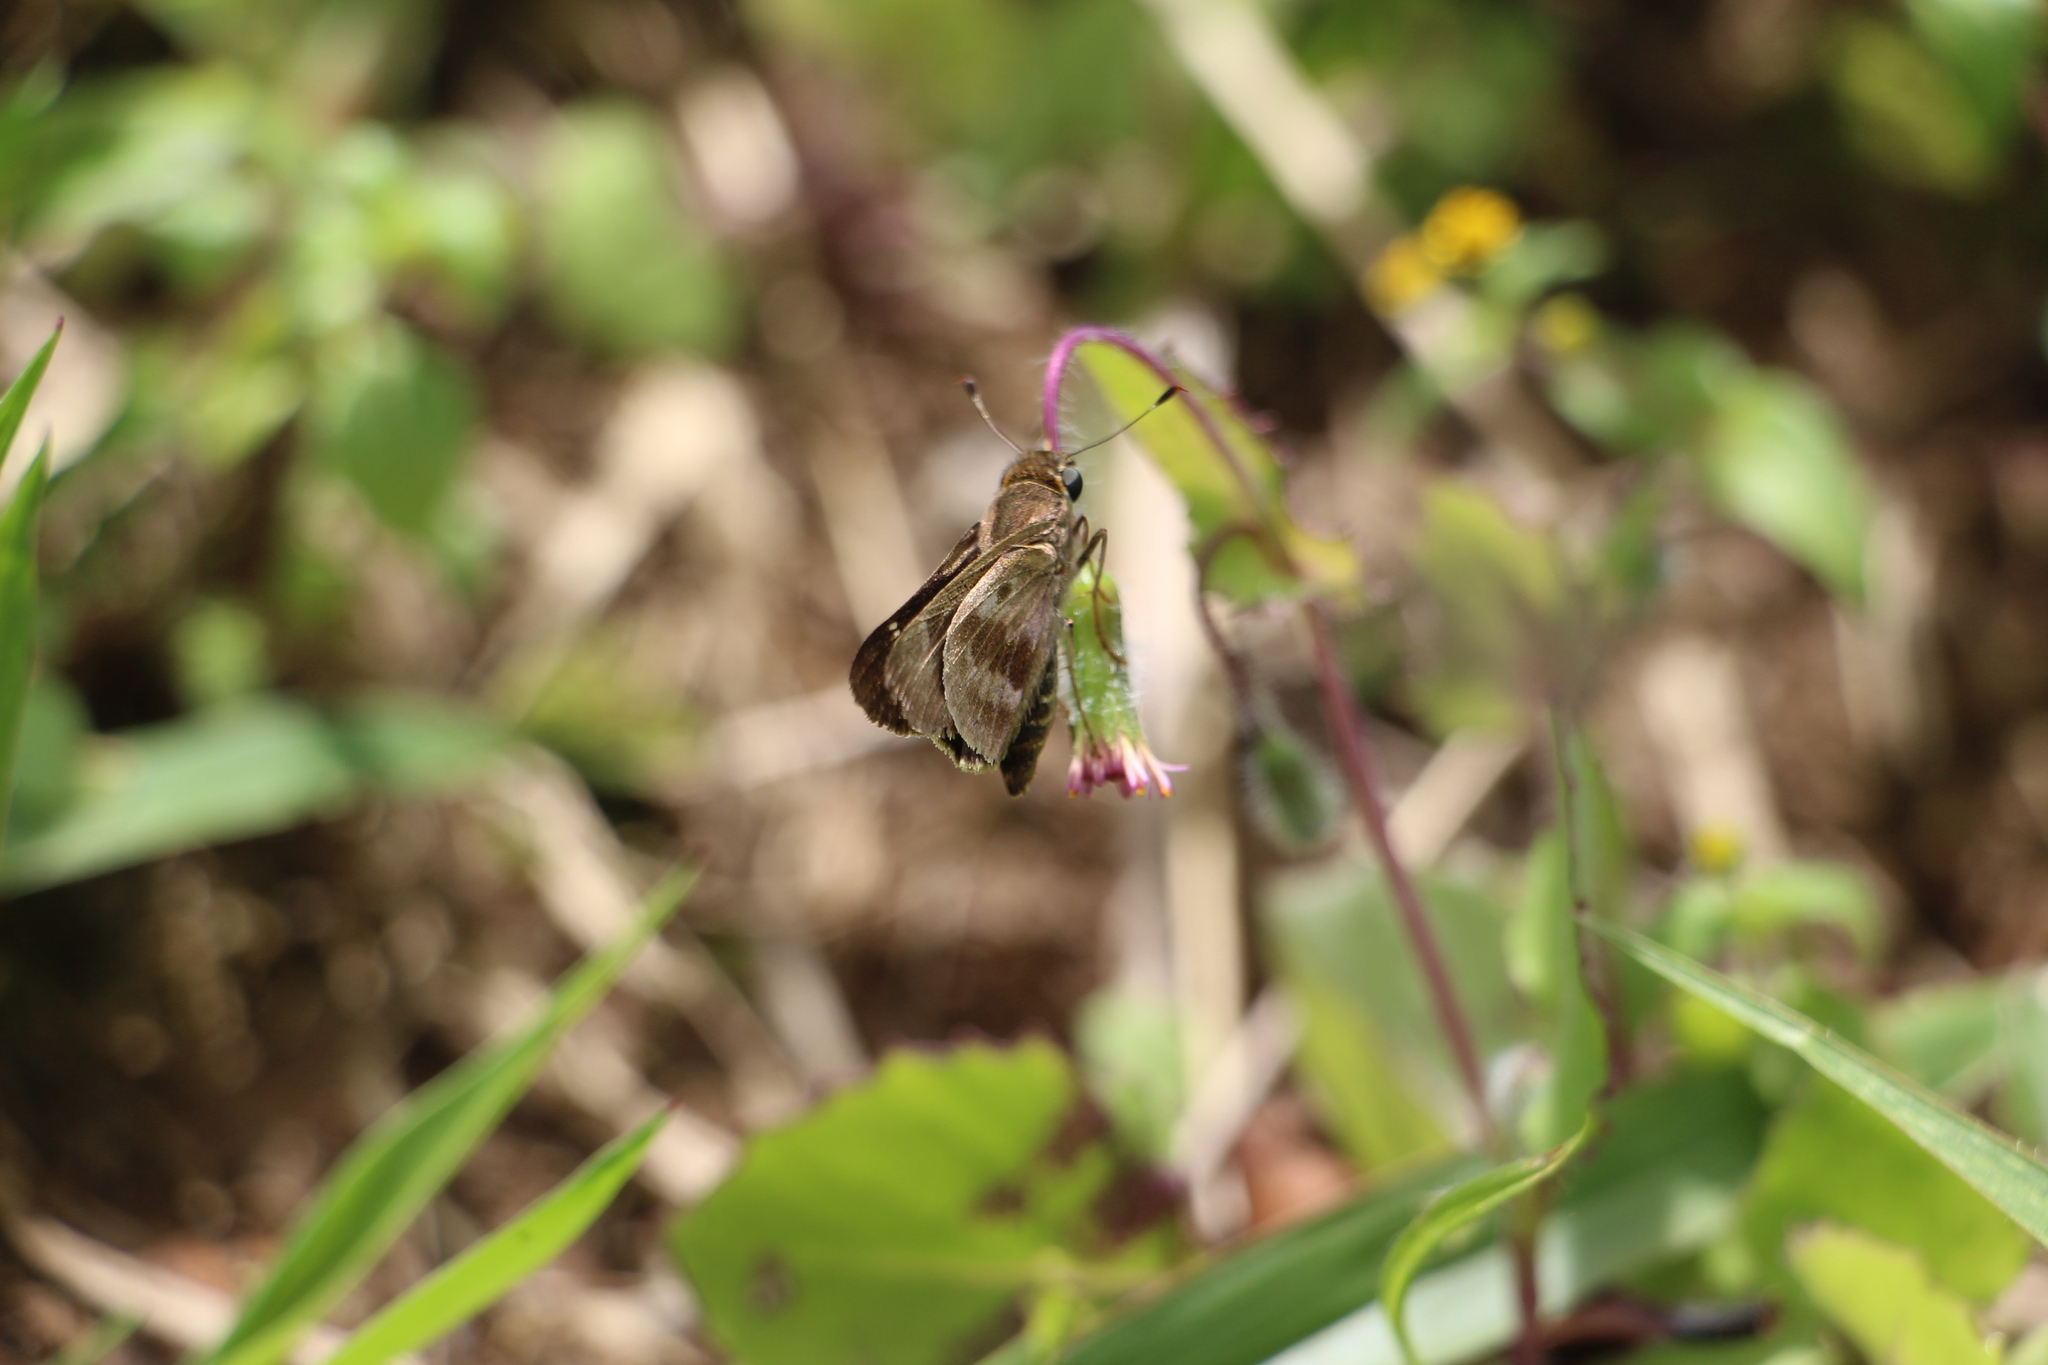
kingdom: Animalia
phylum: Arthropoda
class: Insecta
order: Lepidoptera
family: Hesperiidae
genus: Nyctelius
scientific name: Nyctelius nyctelius
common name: Violet-banded skipper
